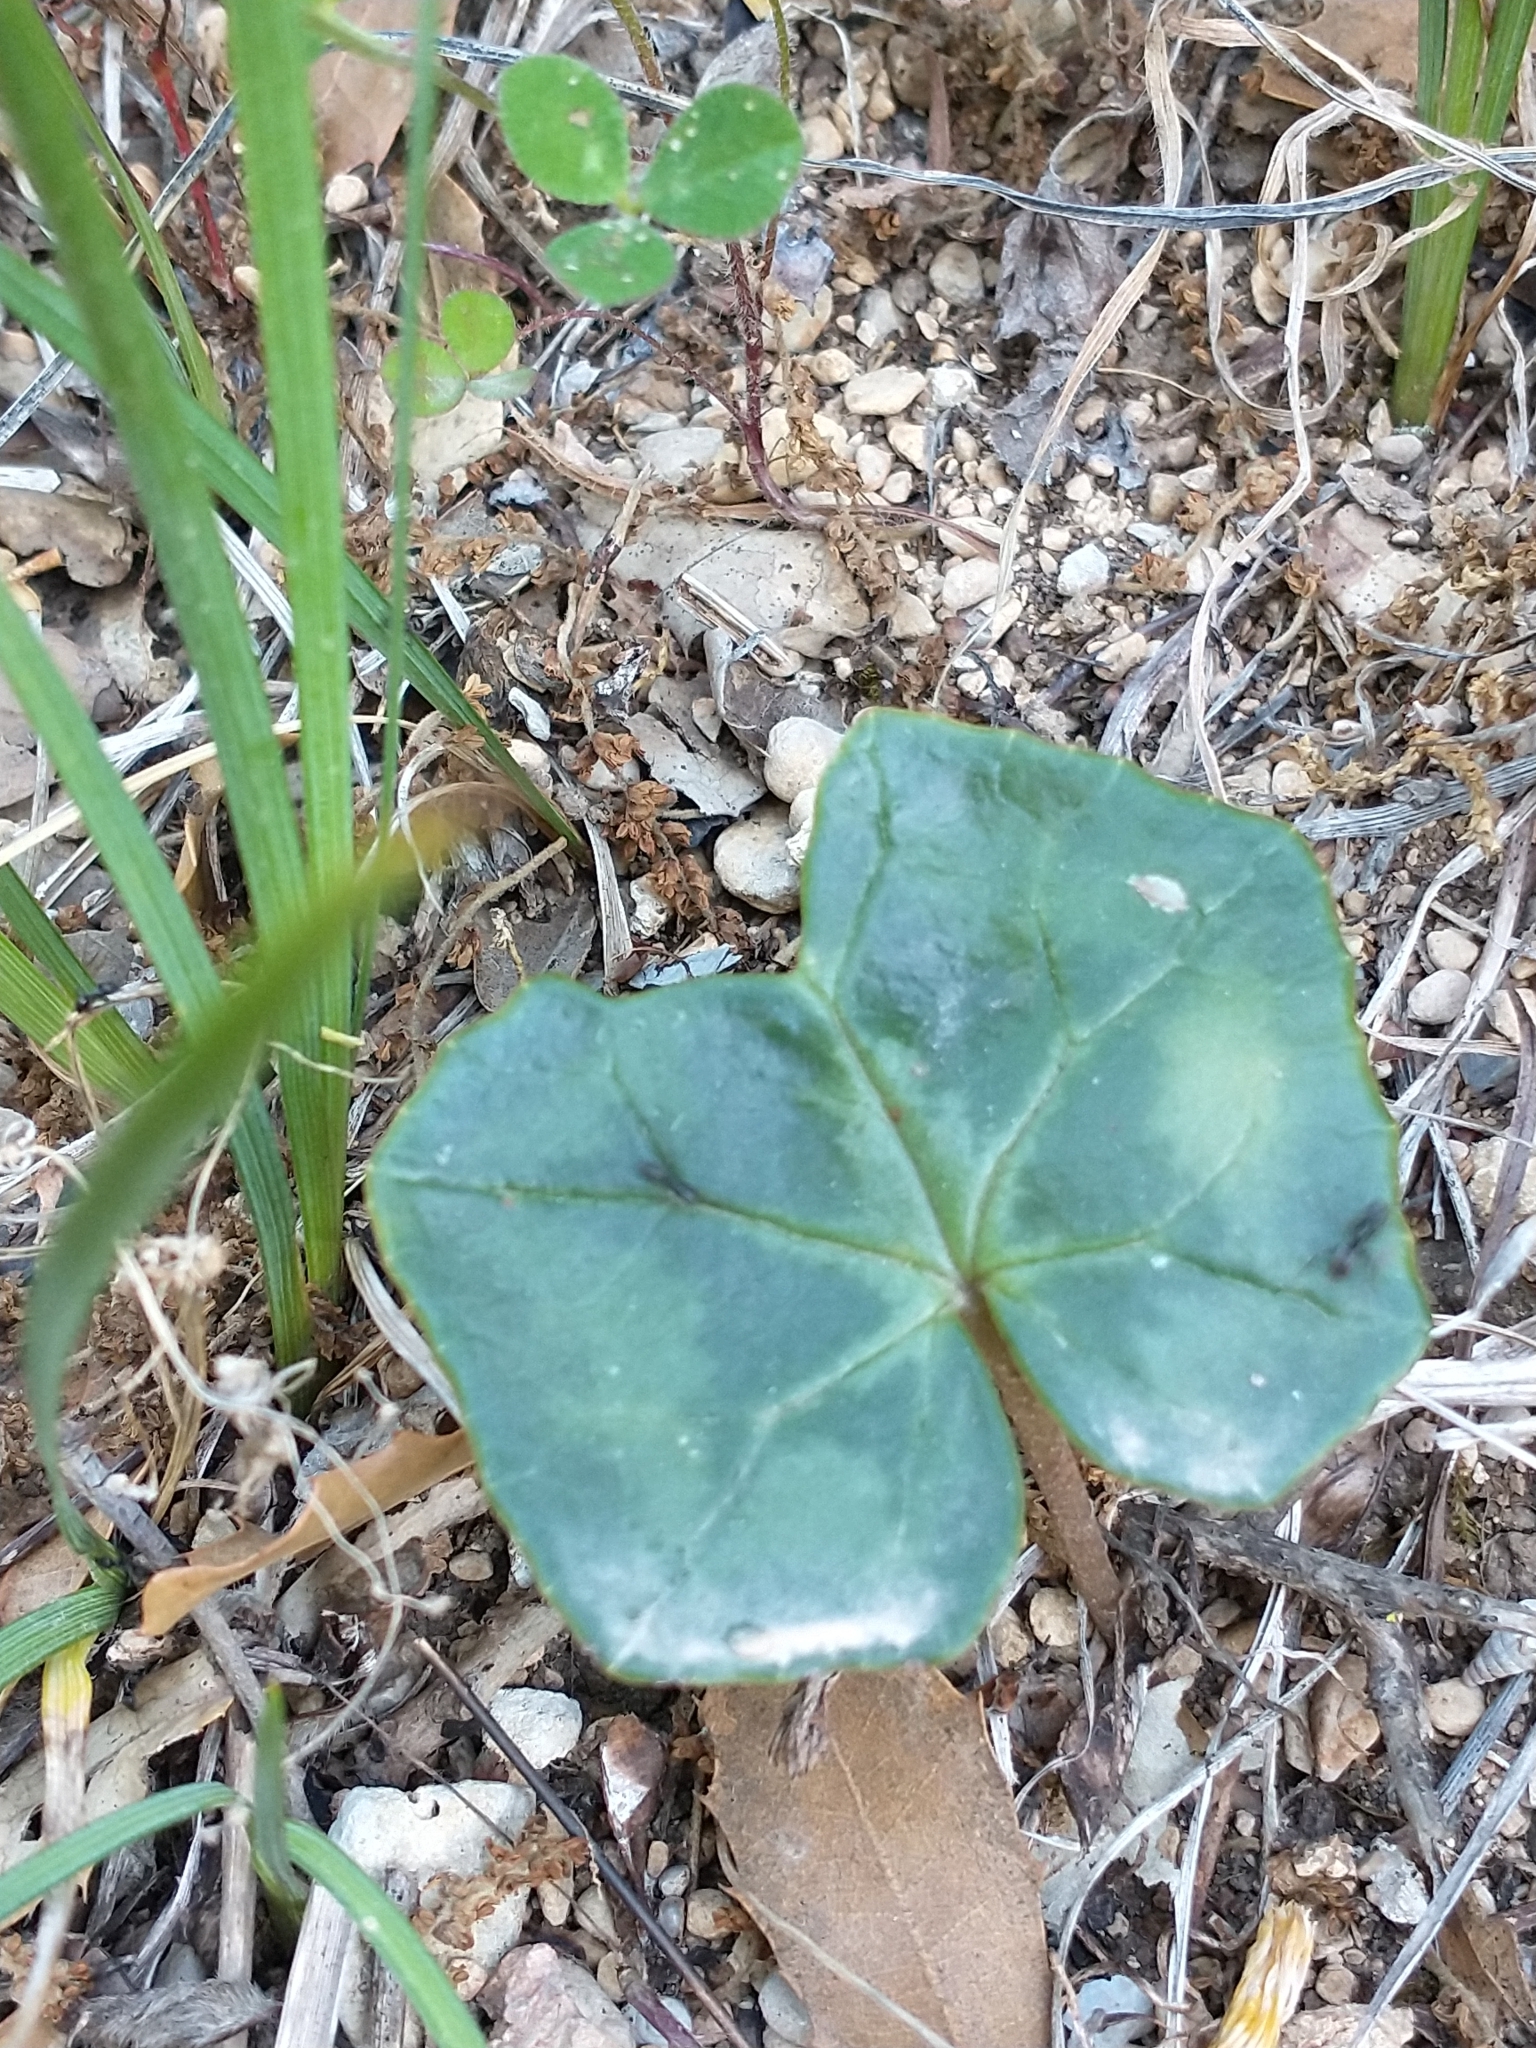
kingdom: Plantae
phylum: Tracheophyta
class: Magnoliopsida
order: Ericales
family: Primulaceae
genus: Cyclamen
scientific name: Cyclamen hederifolium
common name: Sowbread
